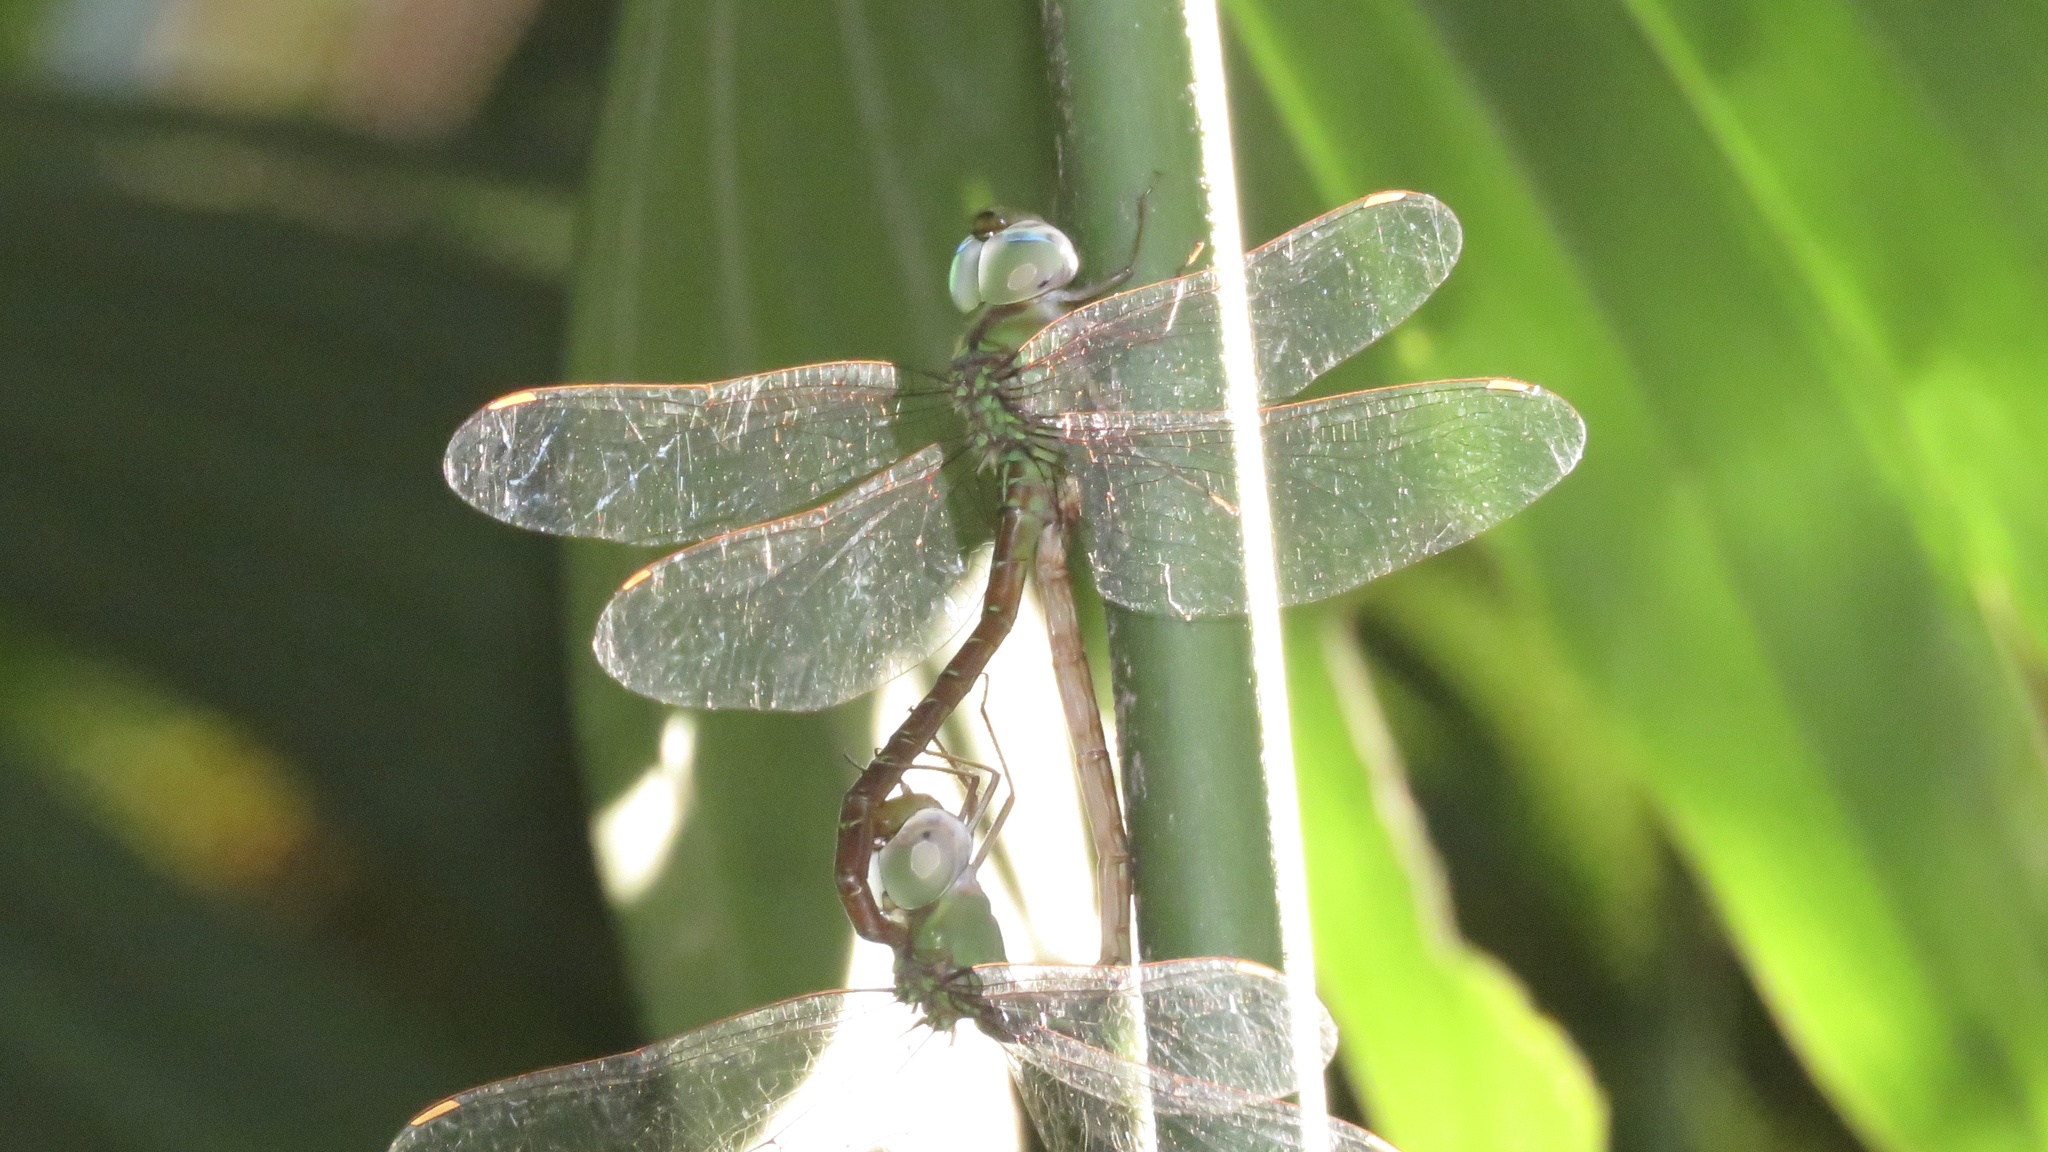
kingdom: Animalia
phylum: Arthropoda
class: Insecta
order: Odonata
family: Aeshnidae
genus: Triacanthagyna
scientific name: Triacanthagyna septima
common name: Pale-green darner
